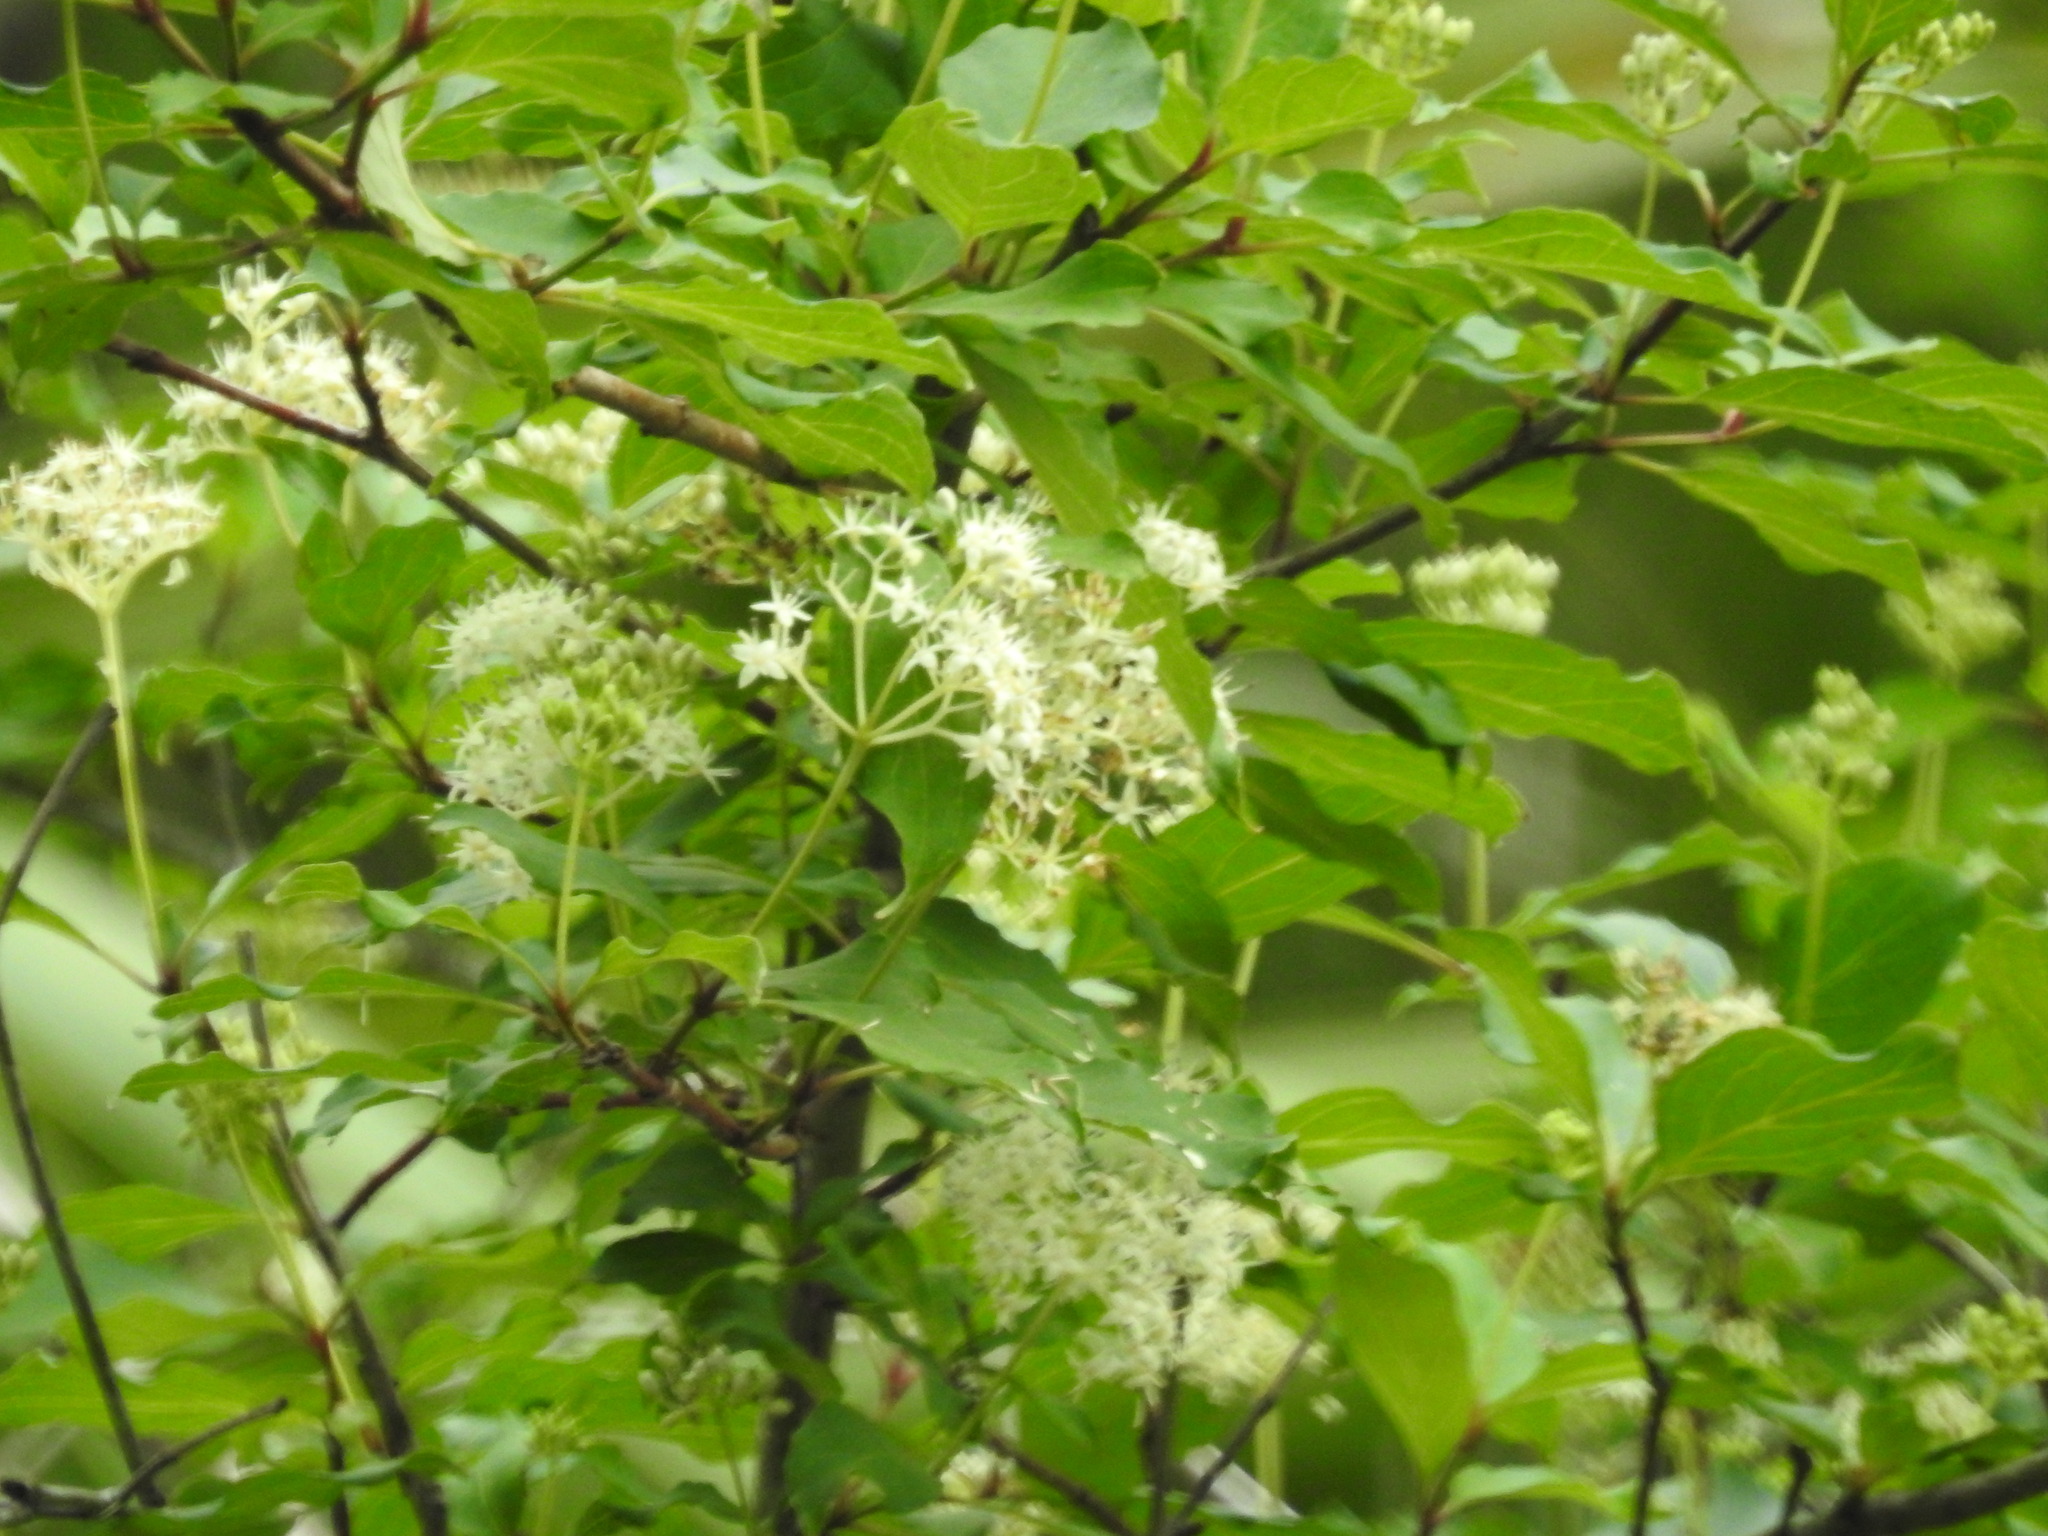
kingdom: Plantae
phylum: Tracheophyta
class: Magnoliopsida
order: Cornales
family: Cornaceae
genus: Cornus
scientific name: Cornus foemina
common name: Swamp dogwood
